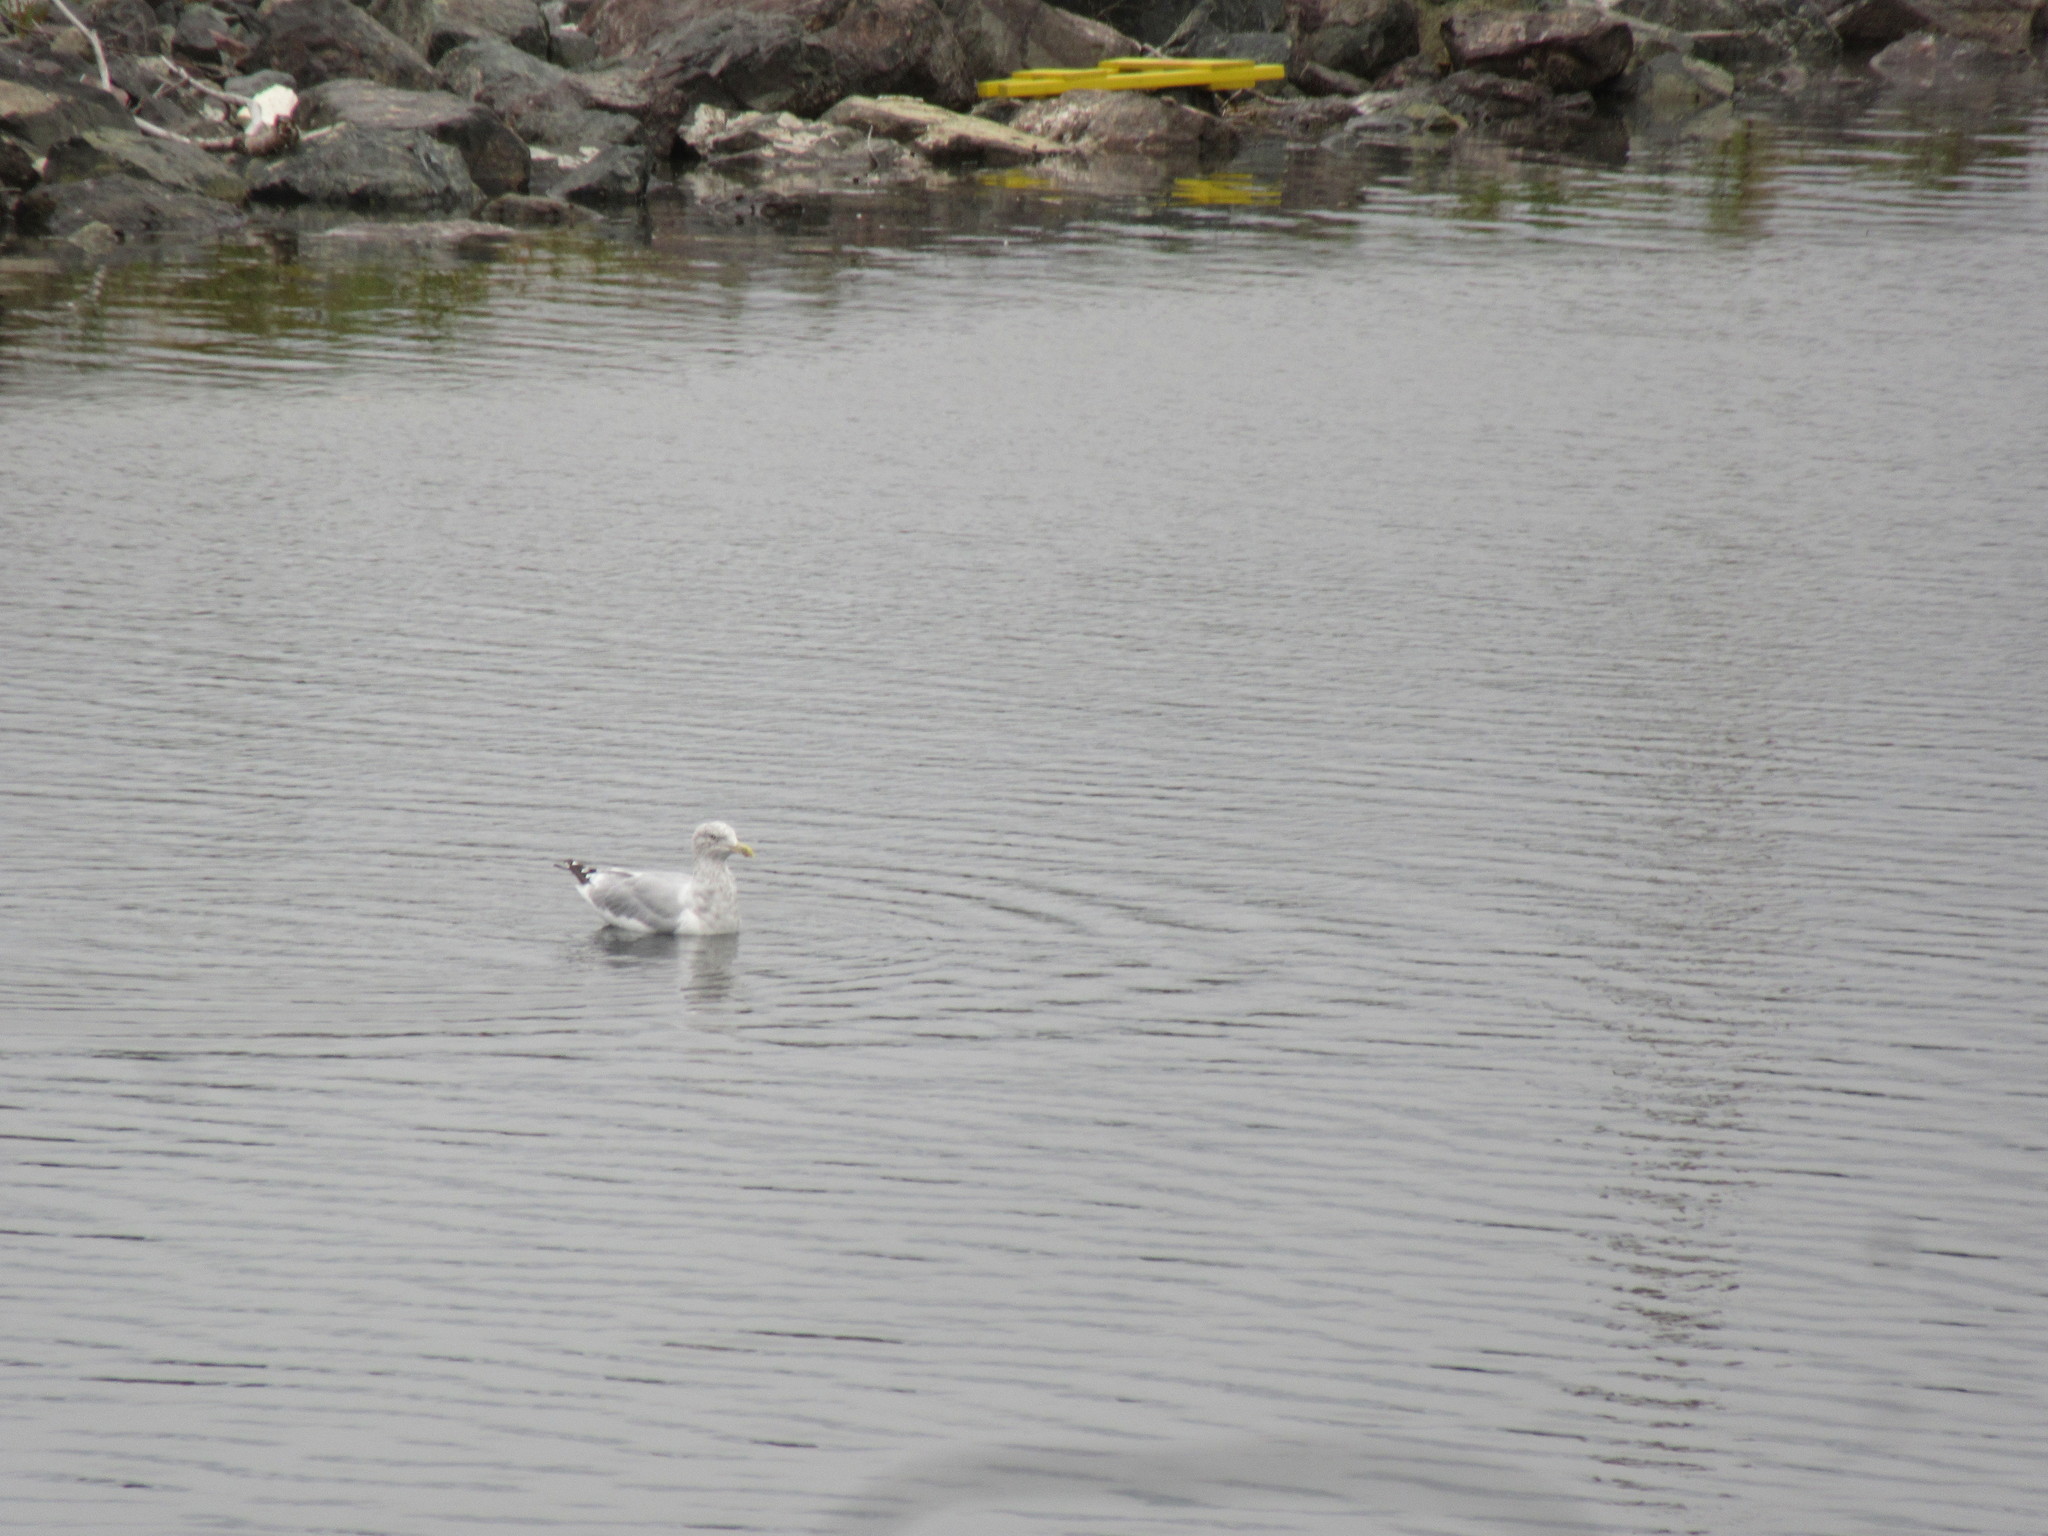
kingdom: Animalia
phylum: Chordata
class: Aves
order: Charadriiformes
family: Laridae
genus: Larus
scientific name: Larus argentatus
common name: Herring gull
